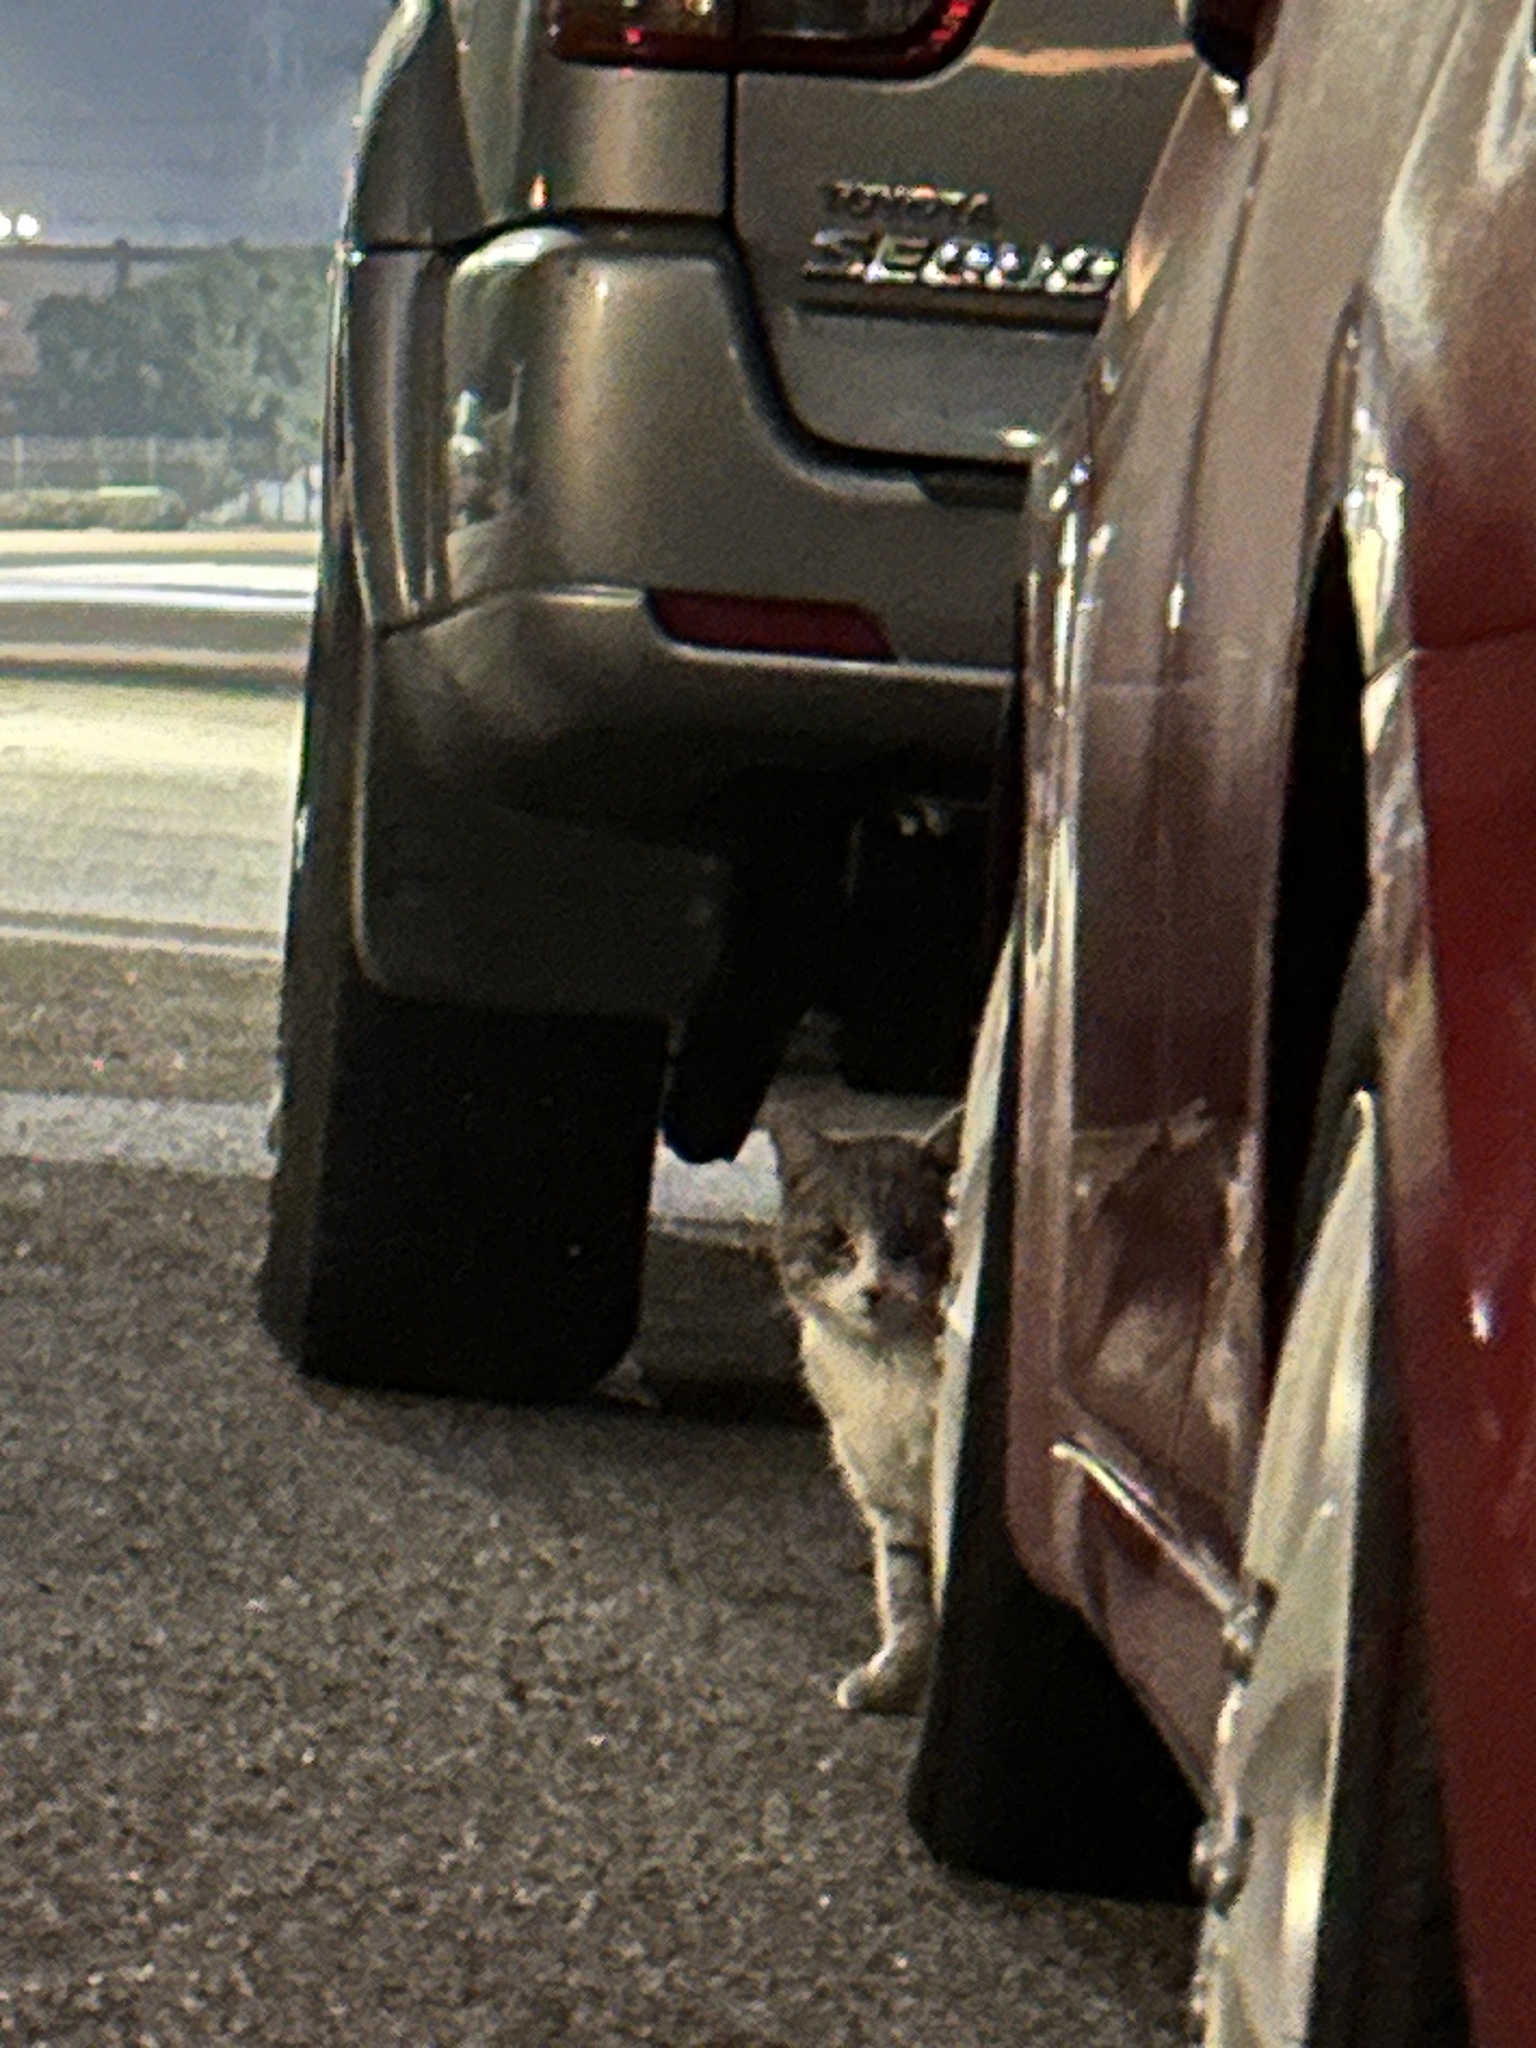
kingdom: Animalia
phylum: Chordata
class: Mammalia
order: Carnivora
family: Felidae
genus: Felis
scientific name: Felis catus
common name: Domestic cat
